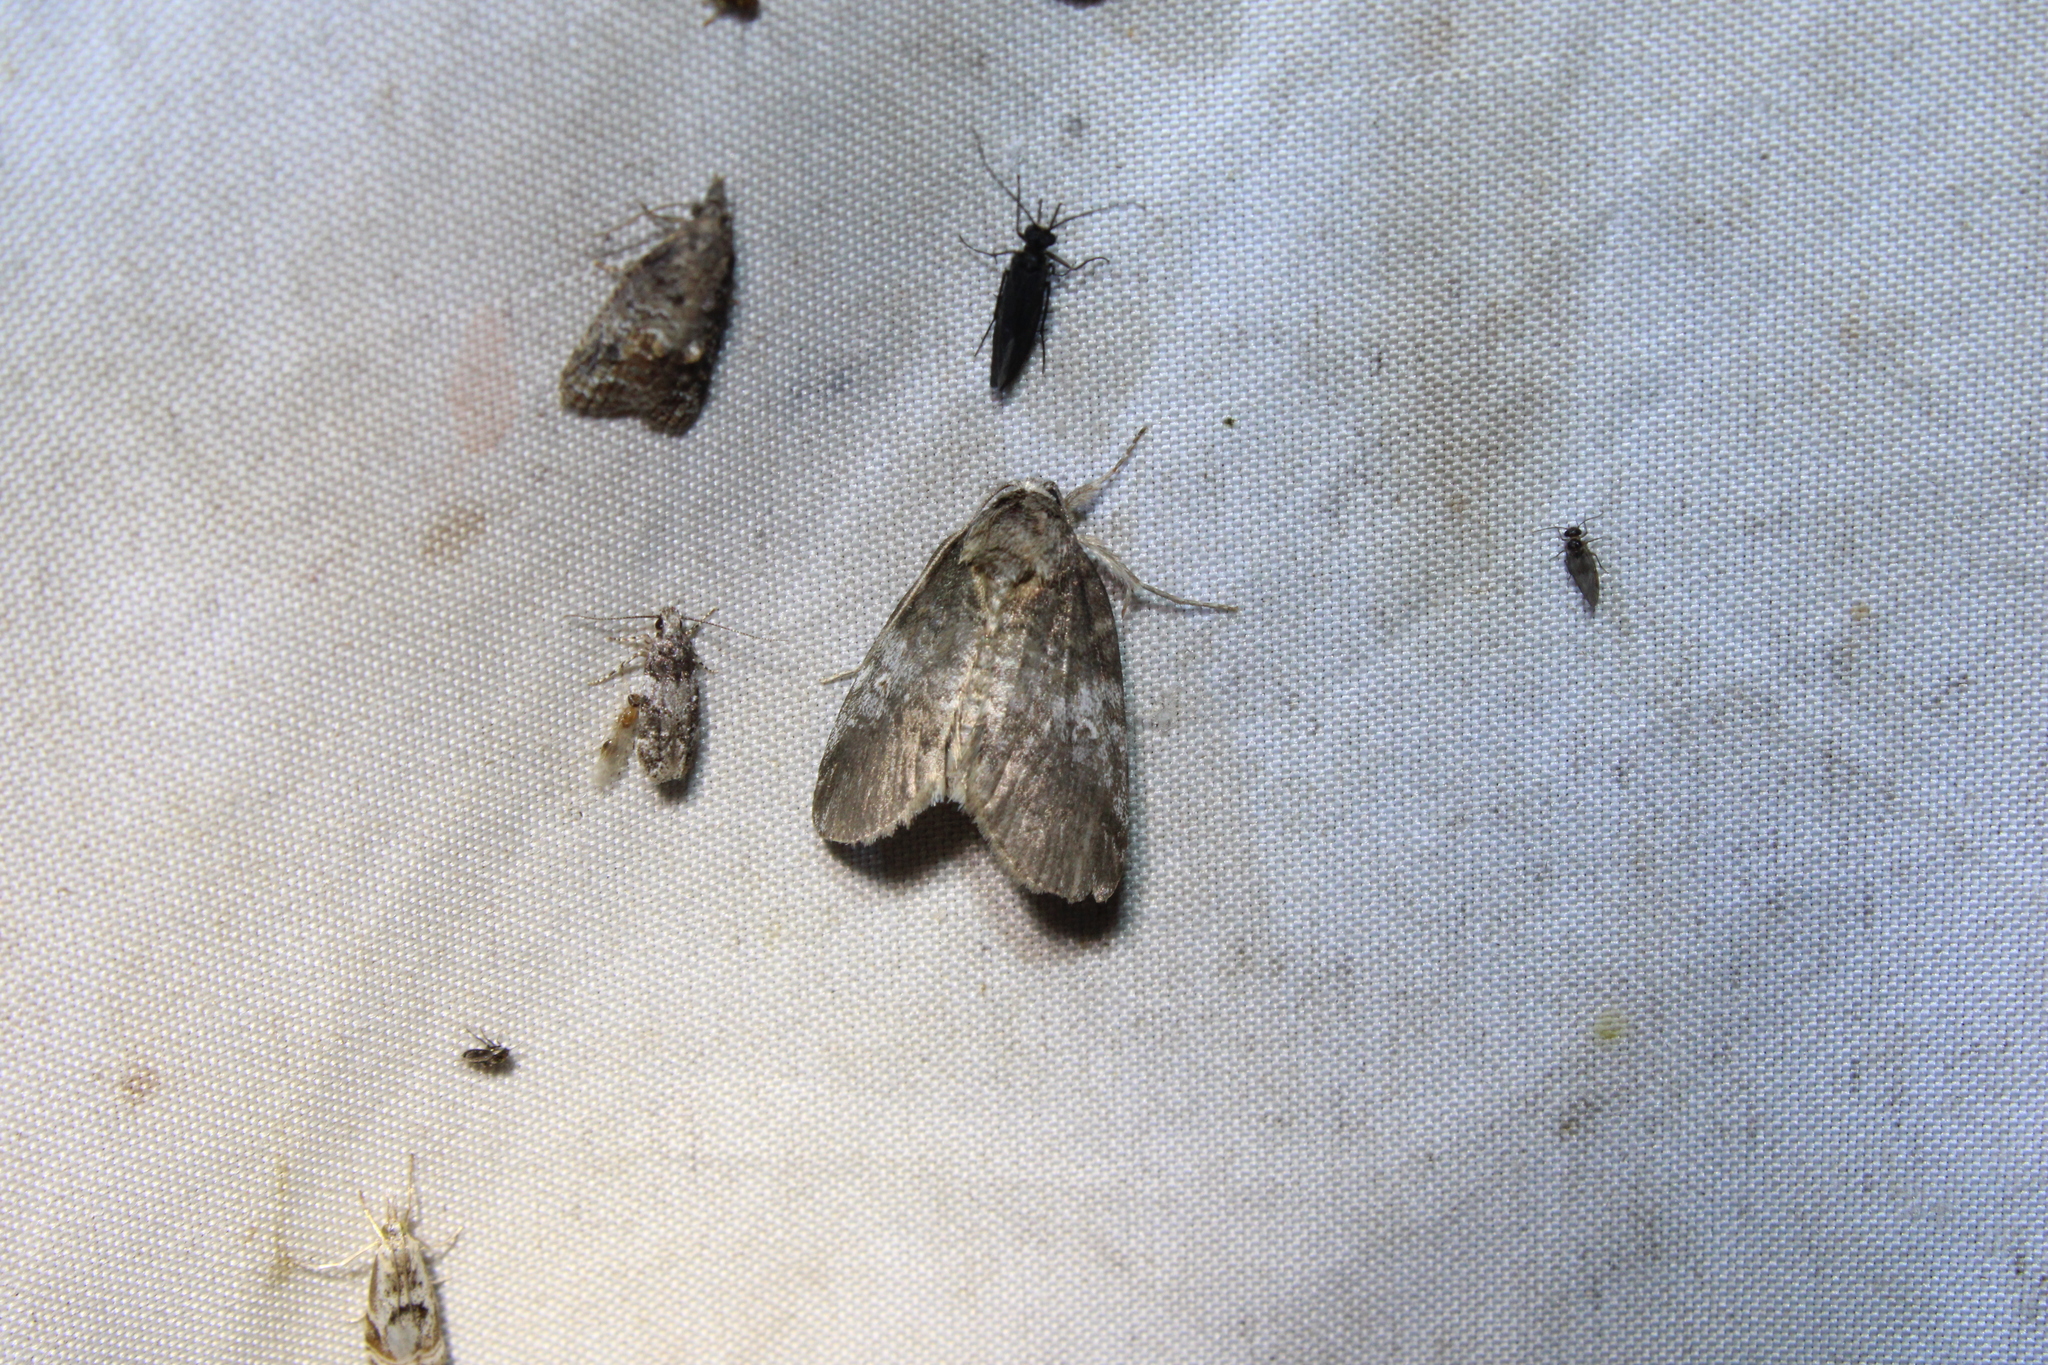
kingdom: Animalia
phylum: Arthropoda
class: Insecta
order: Lepidoptera
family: Notodontidae
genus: Peridea
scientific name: Peridea angulosa
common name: Angulose prominent
